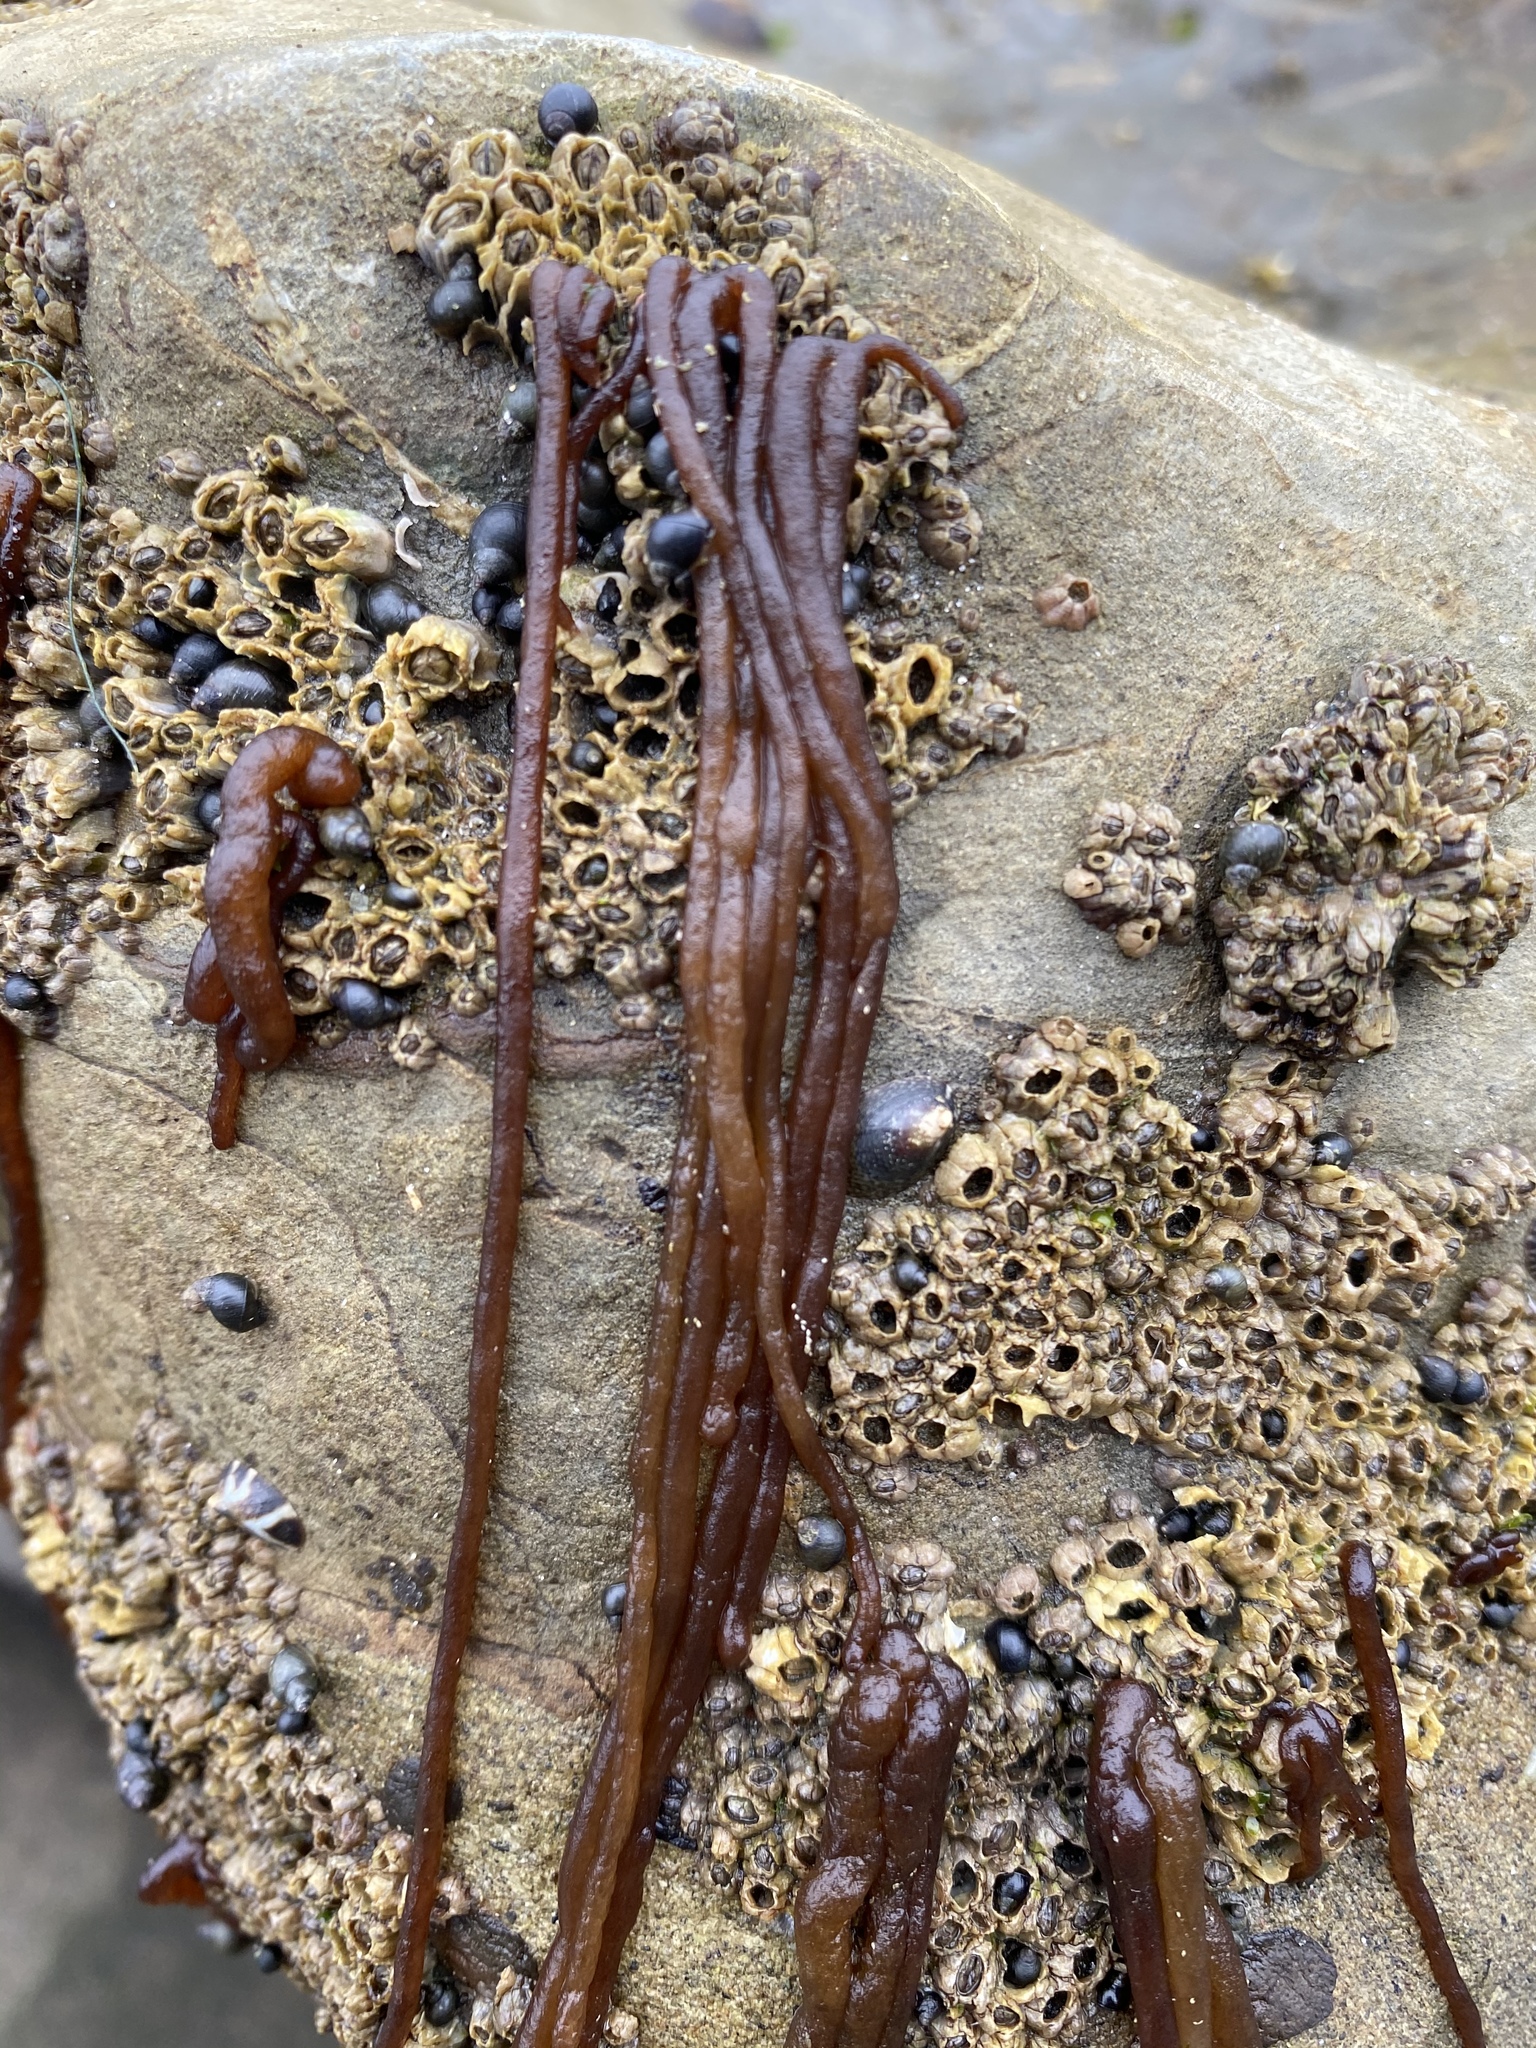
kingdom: Plantae
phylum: Rhodophyta
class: Florideophyceae
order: Nemaliales
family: Nemaliaceae
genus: Nemalion
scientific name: Nemalion elminthoides
